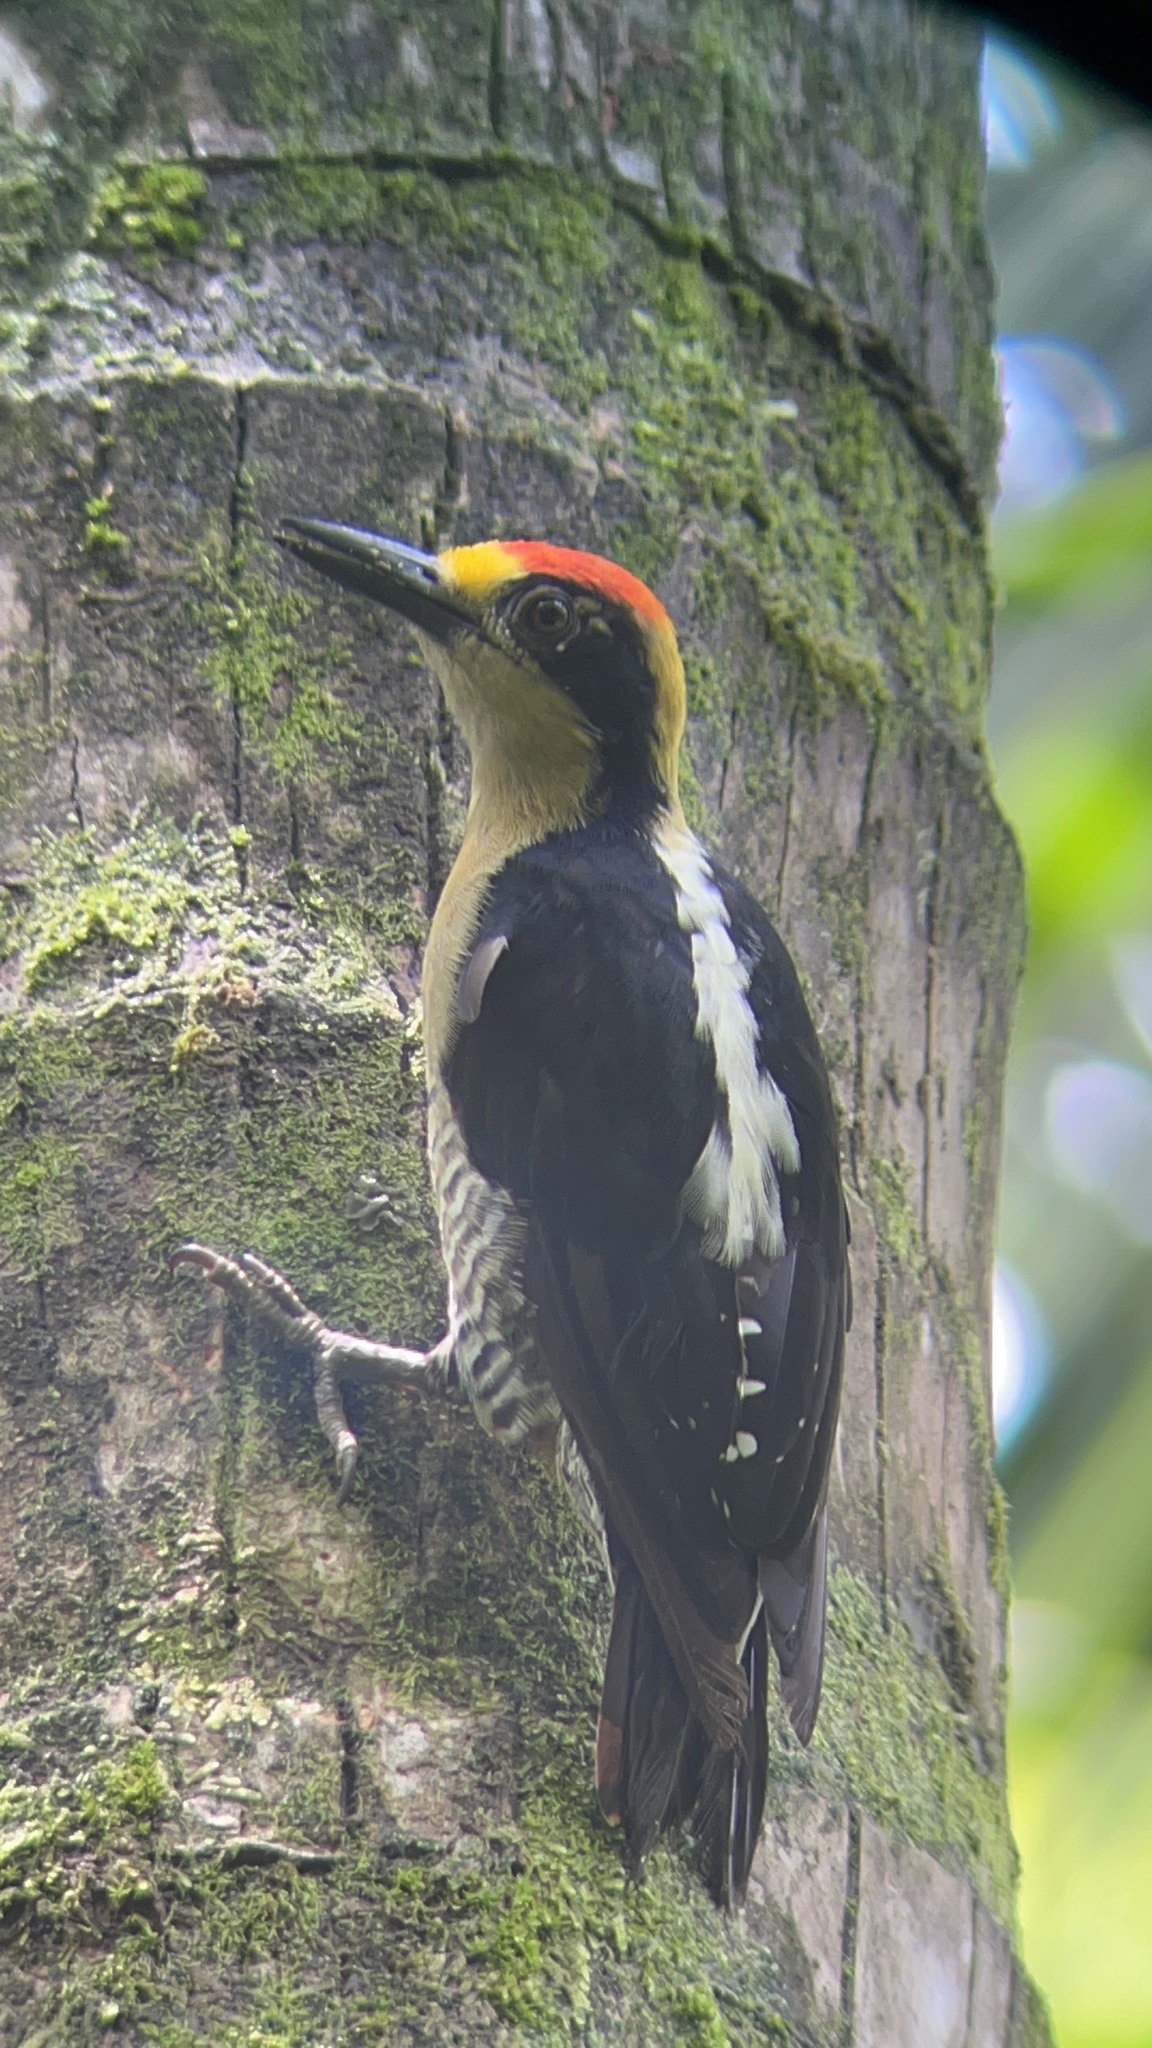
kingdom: Animalia
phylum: Chordata
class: Aves
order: Piciformes
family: Picidae
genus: Melanerpes
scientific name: Melanerpes chrysauchen
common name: Golden-naped woodpecker
